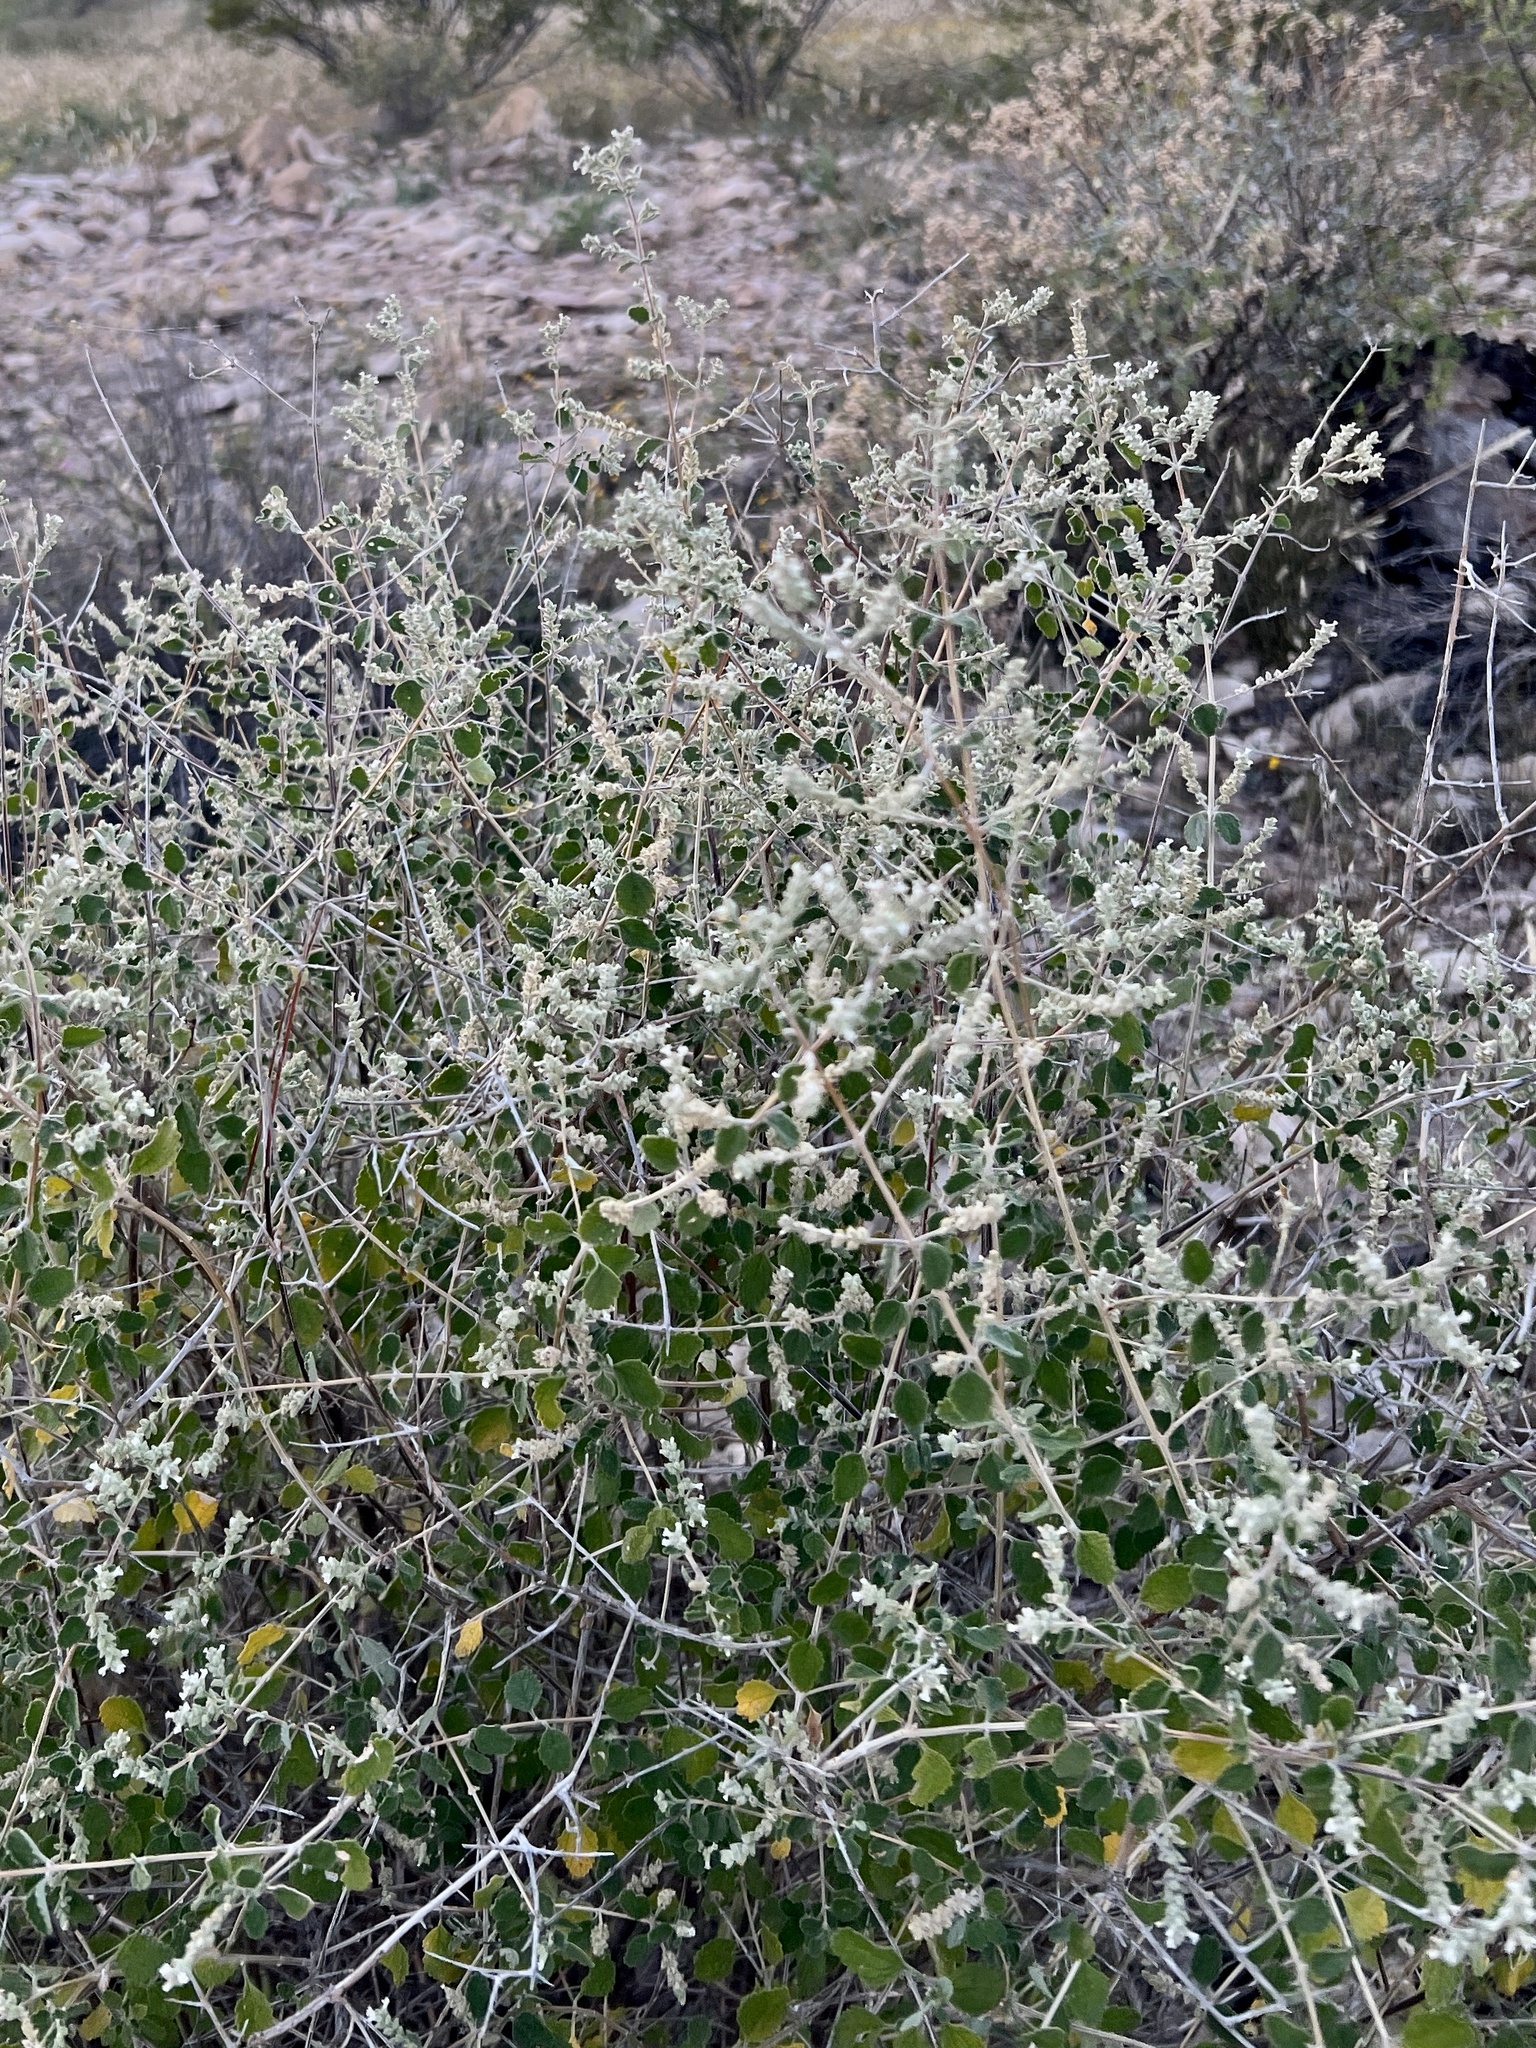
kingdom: Plantae
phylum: Tracheophyta
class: Magnoliopsida
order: Lamiales
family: Verbenaceae
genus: Aloysia
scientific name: Aloysia wrightii
